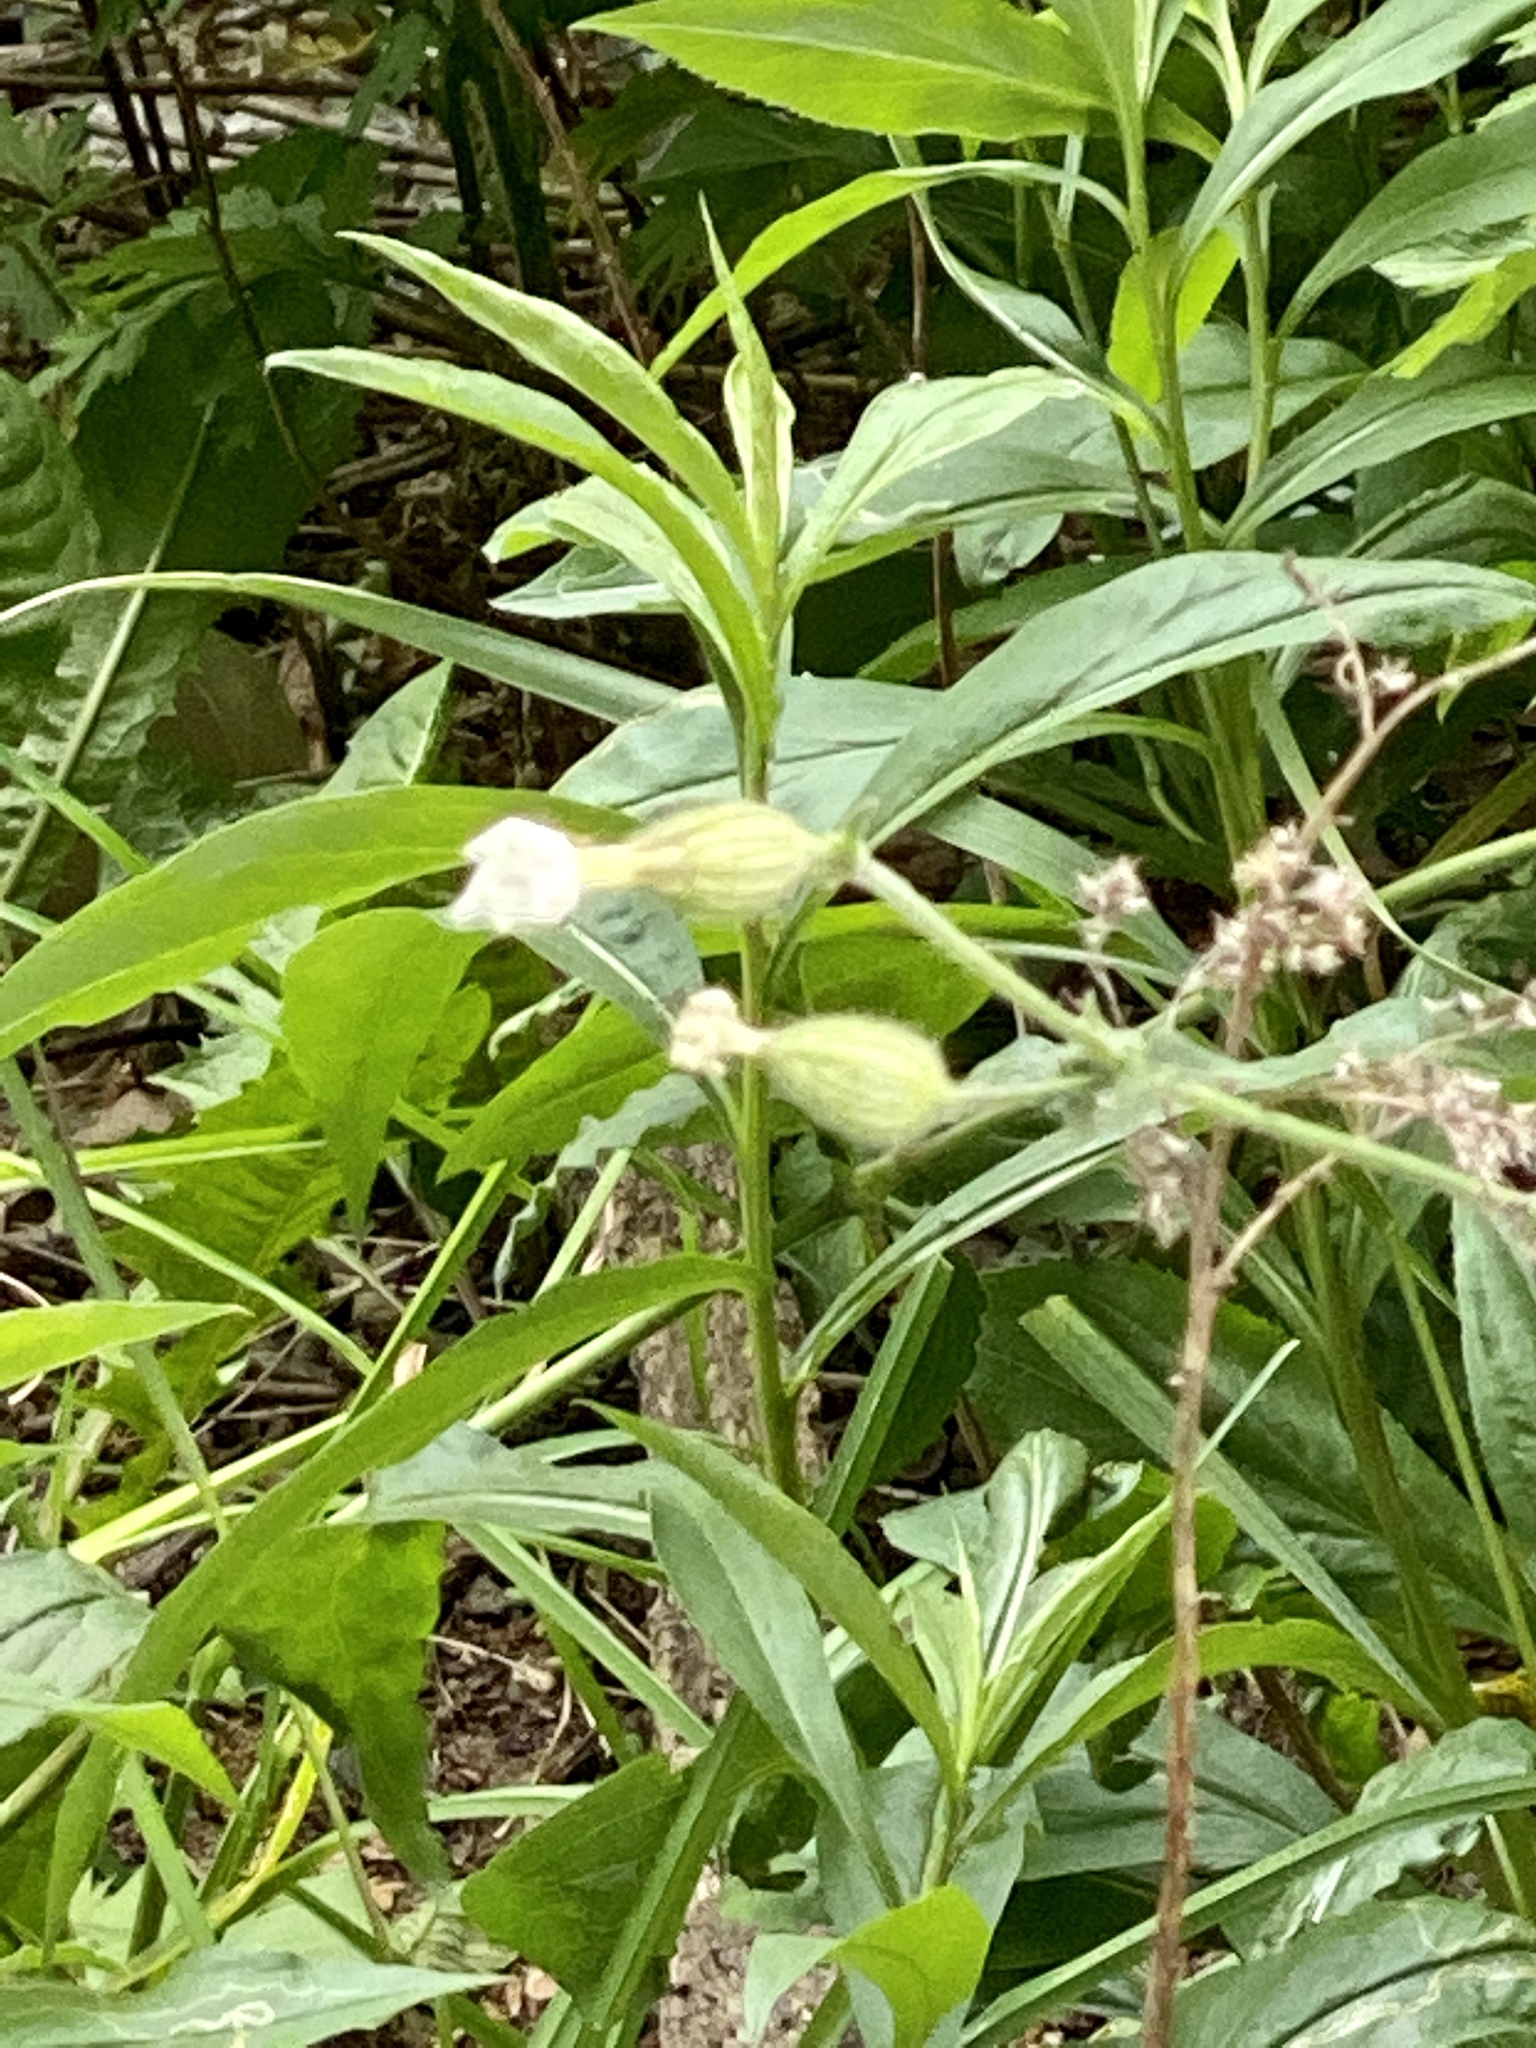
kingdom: Plantae
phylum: Tracheophyta
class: Magnoliopsida
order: Caryophyllales
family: Caryophyllaceae
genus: Silene
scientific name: Silene latifolia
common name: White campion
